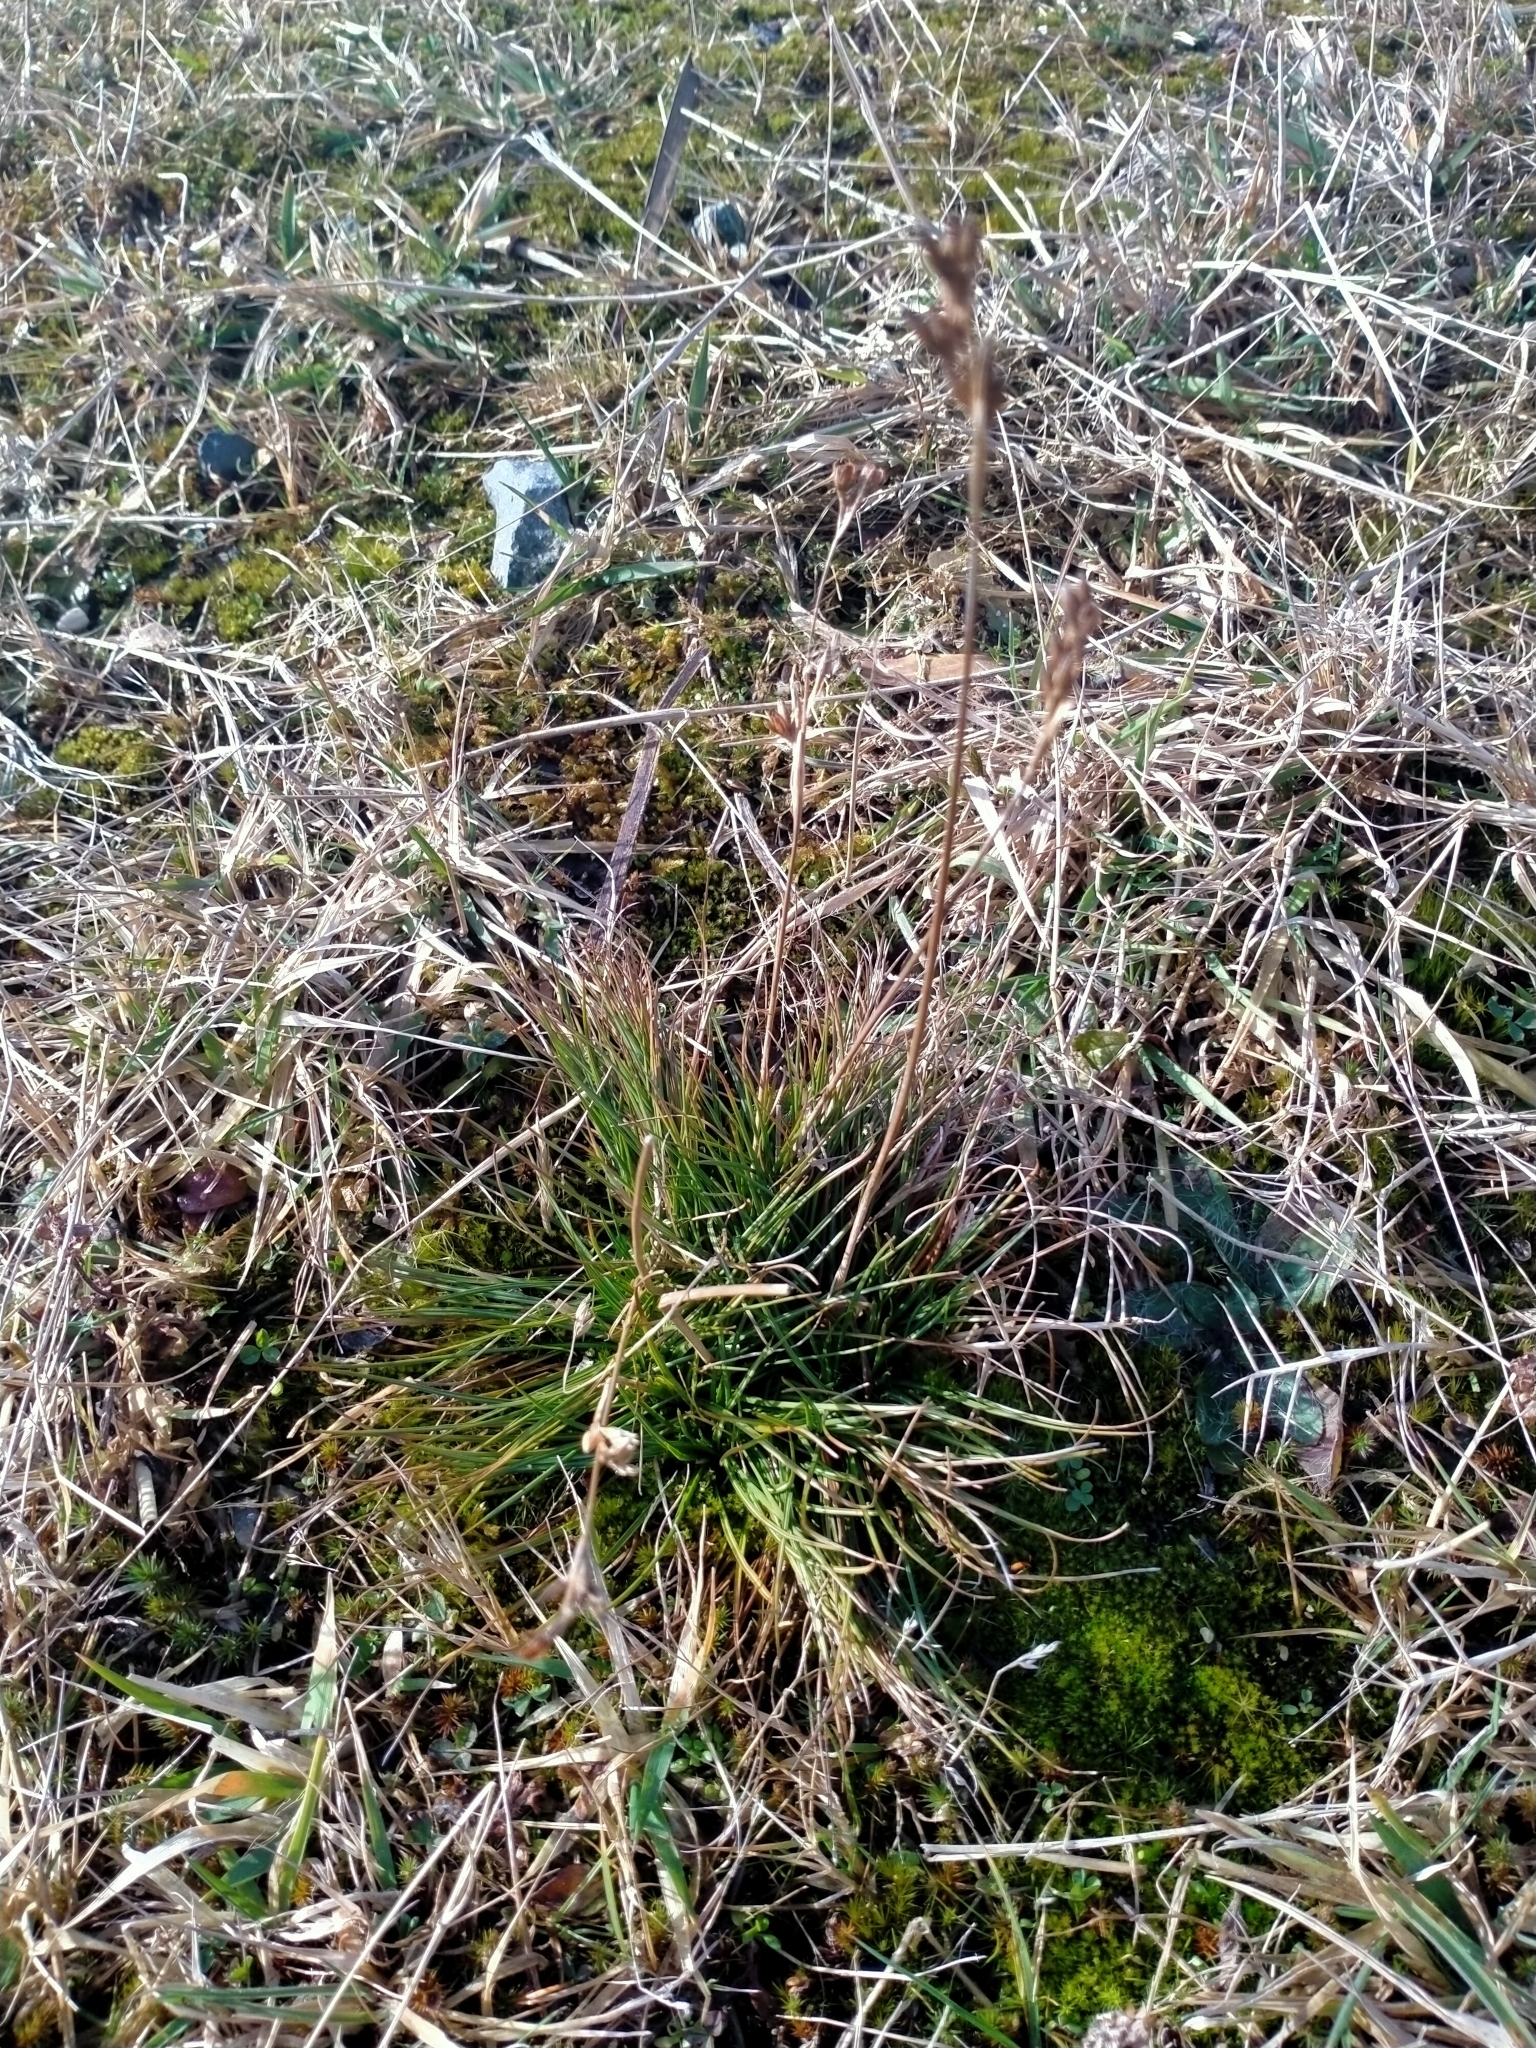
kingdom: Plantae
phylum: Tracheophyta
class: Liliopsida
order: Poales
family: Juncaceae
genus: Juncus
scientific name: Juncus squarrosus
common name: Heath rush
